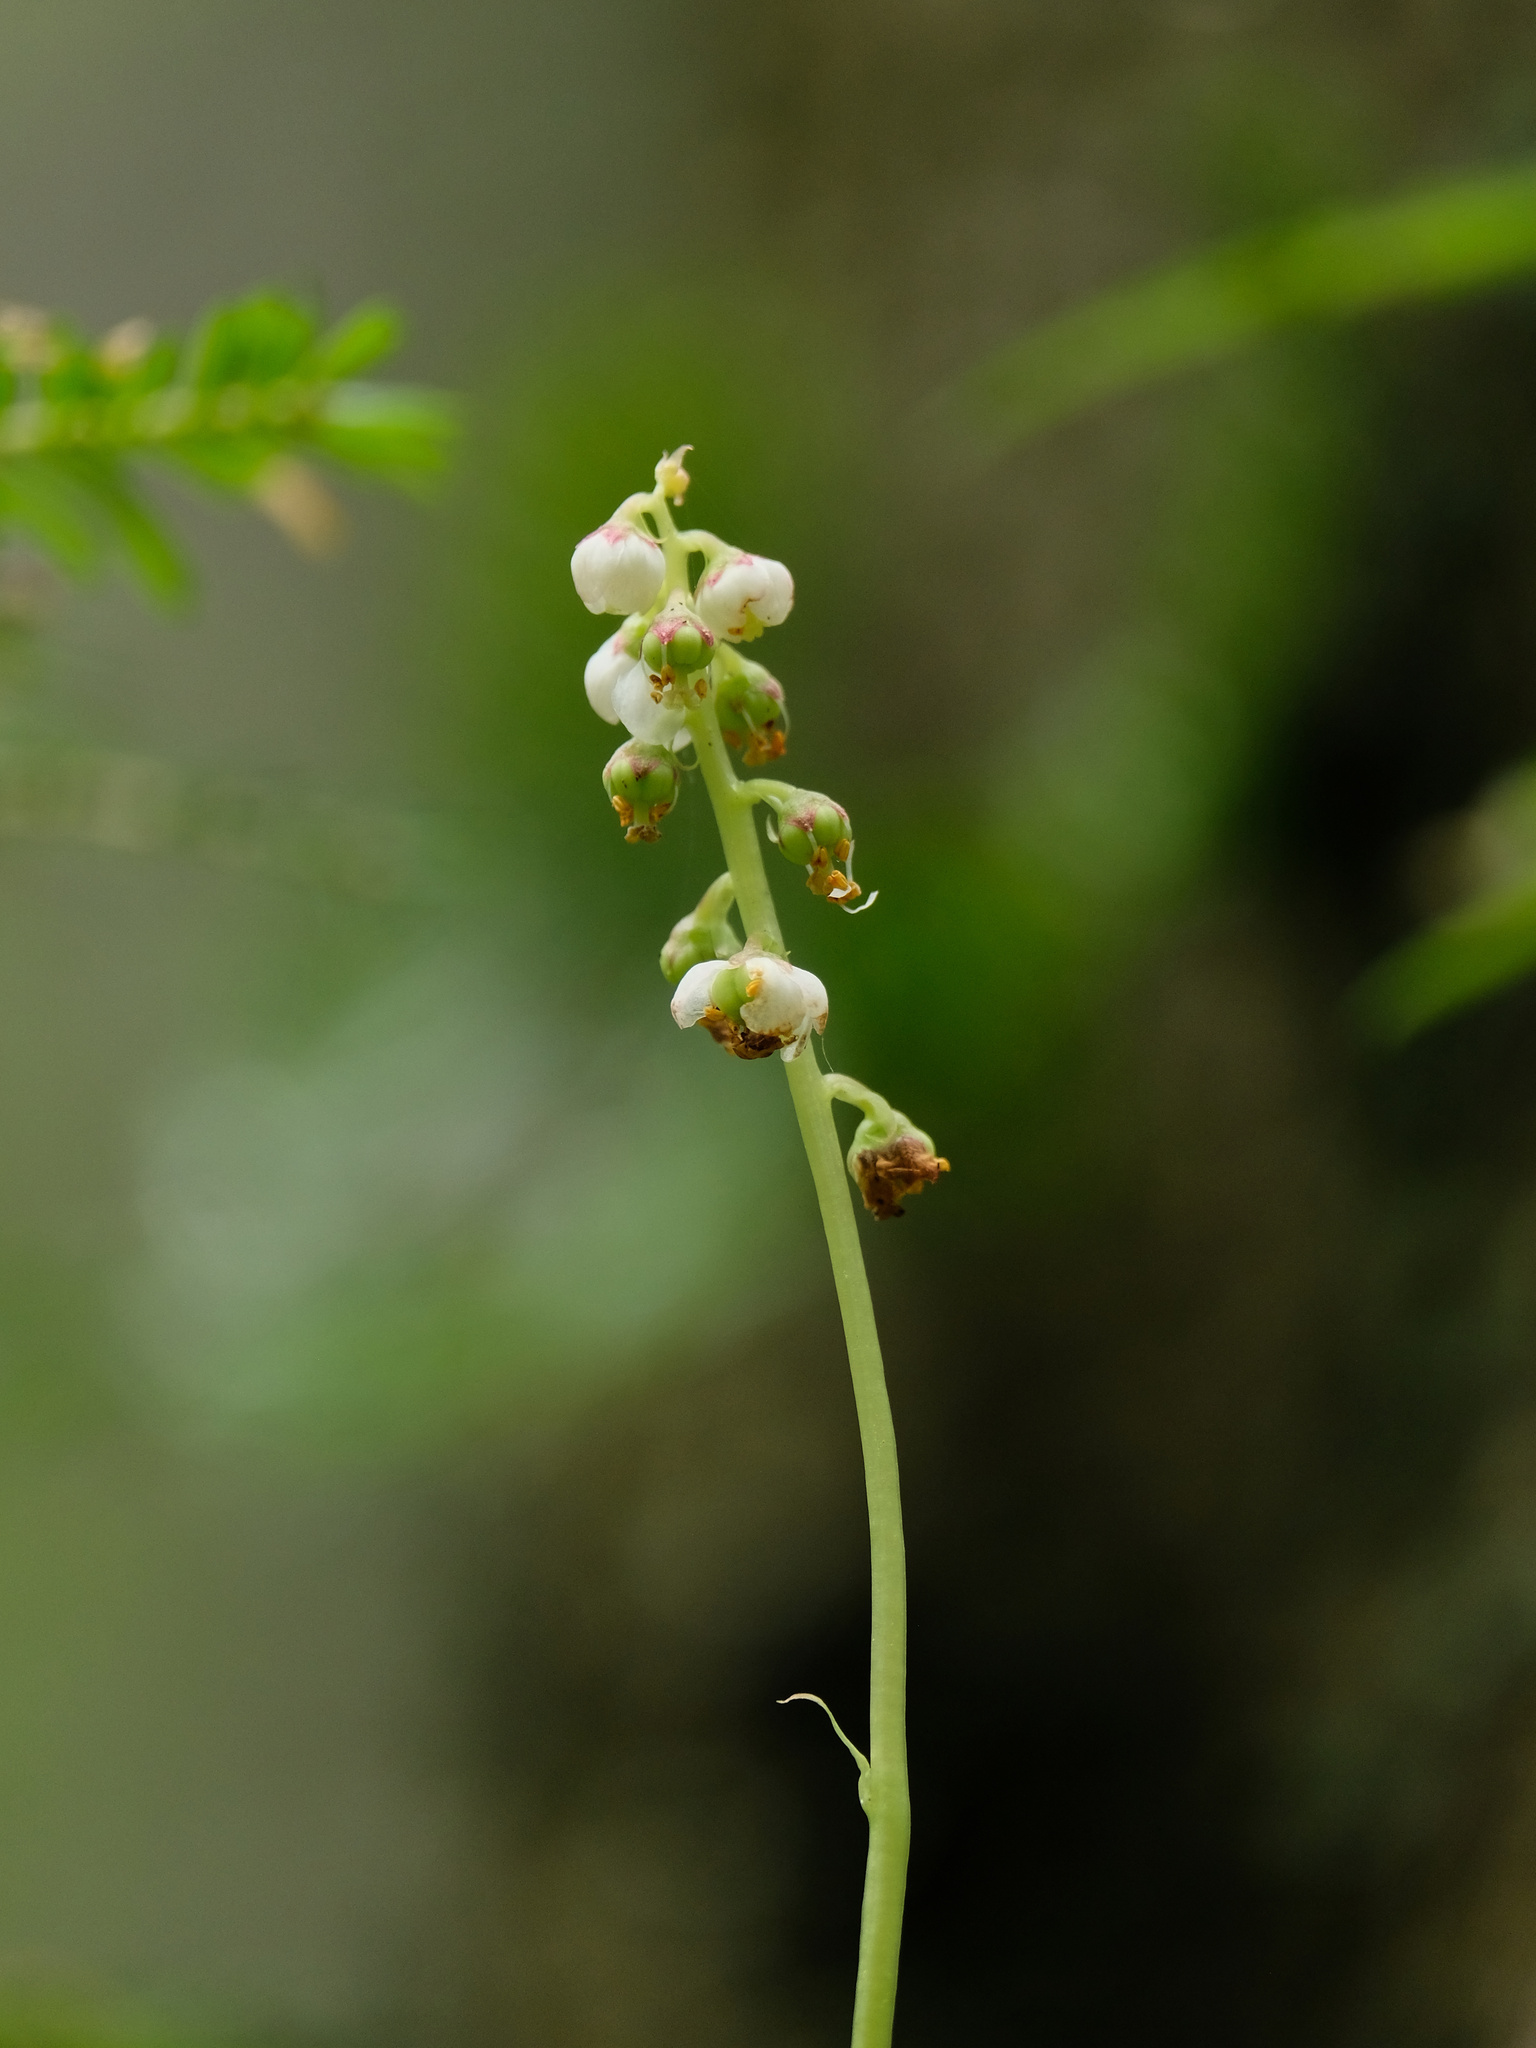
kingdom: Plantae
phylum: Tracheophyta
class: Magnoliopsida
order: Ericales
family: Ericaceae
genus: Pyrola
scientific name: Pyrola minor
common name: Common wintergreen
